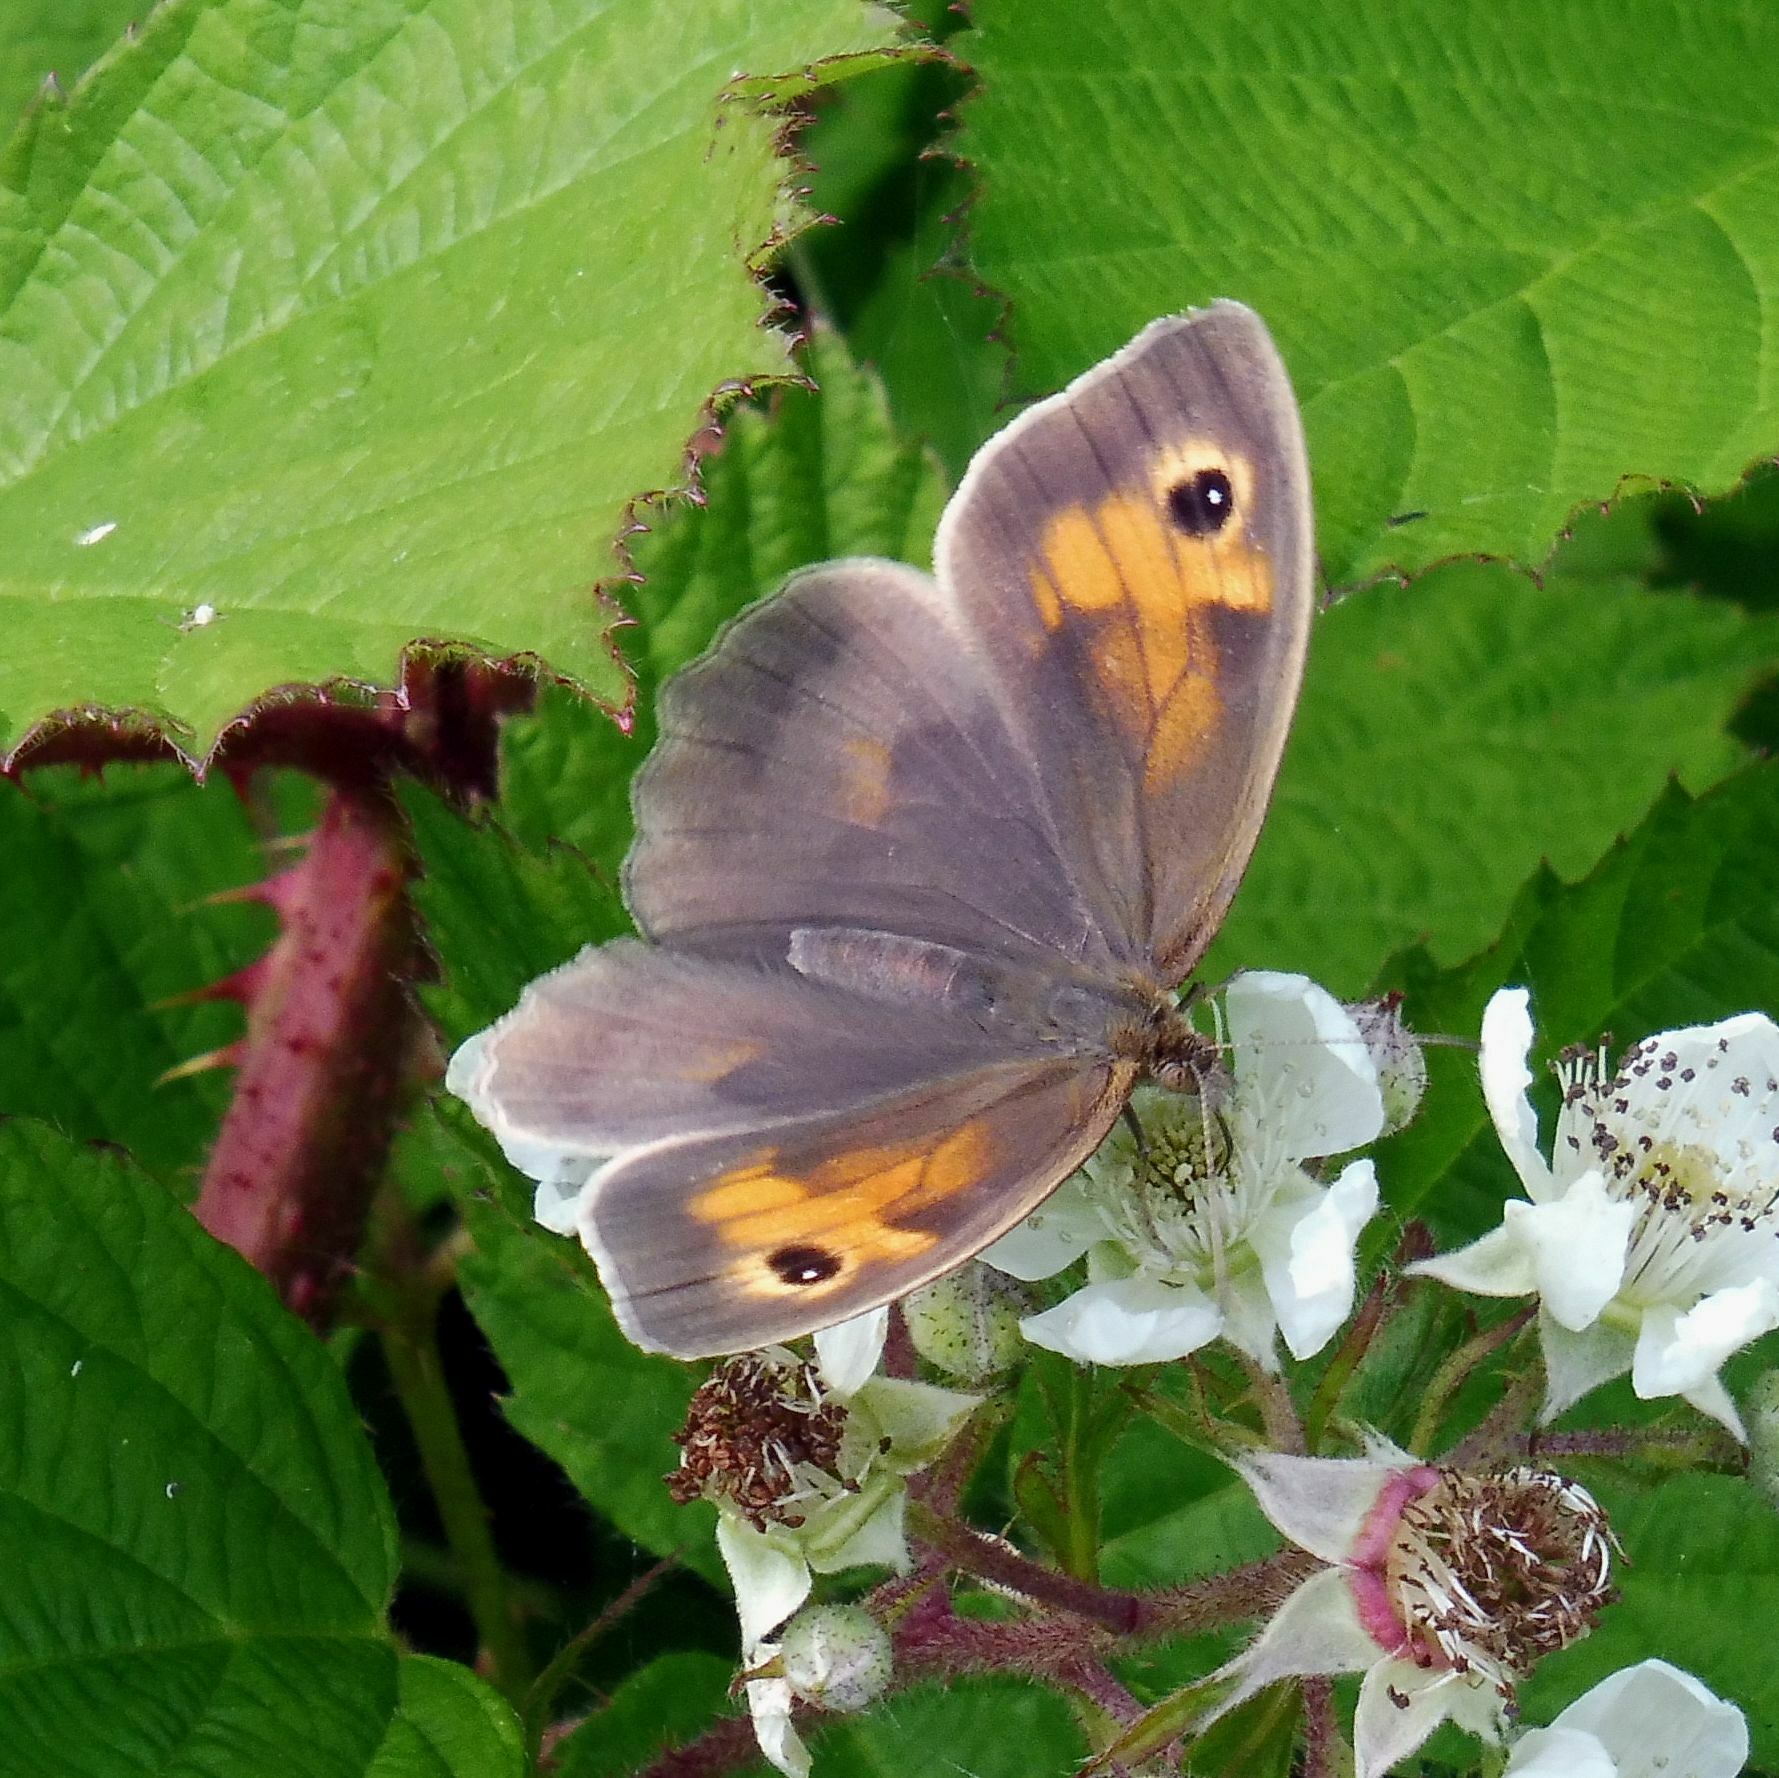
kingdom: Animalia
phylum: Arthropoda
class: Insecta
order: Lepidoptera
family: Nymphalidae
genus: Maniola
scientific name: Maniola jurtina
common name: Meadow brown
